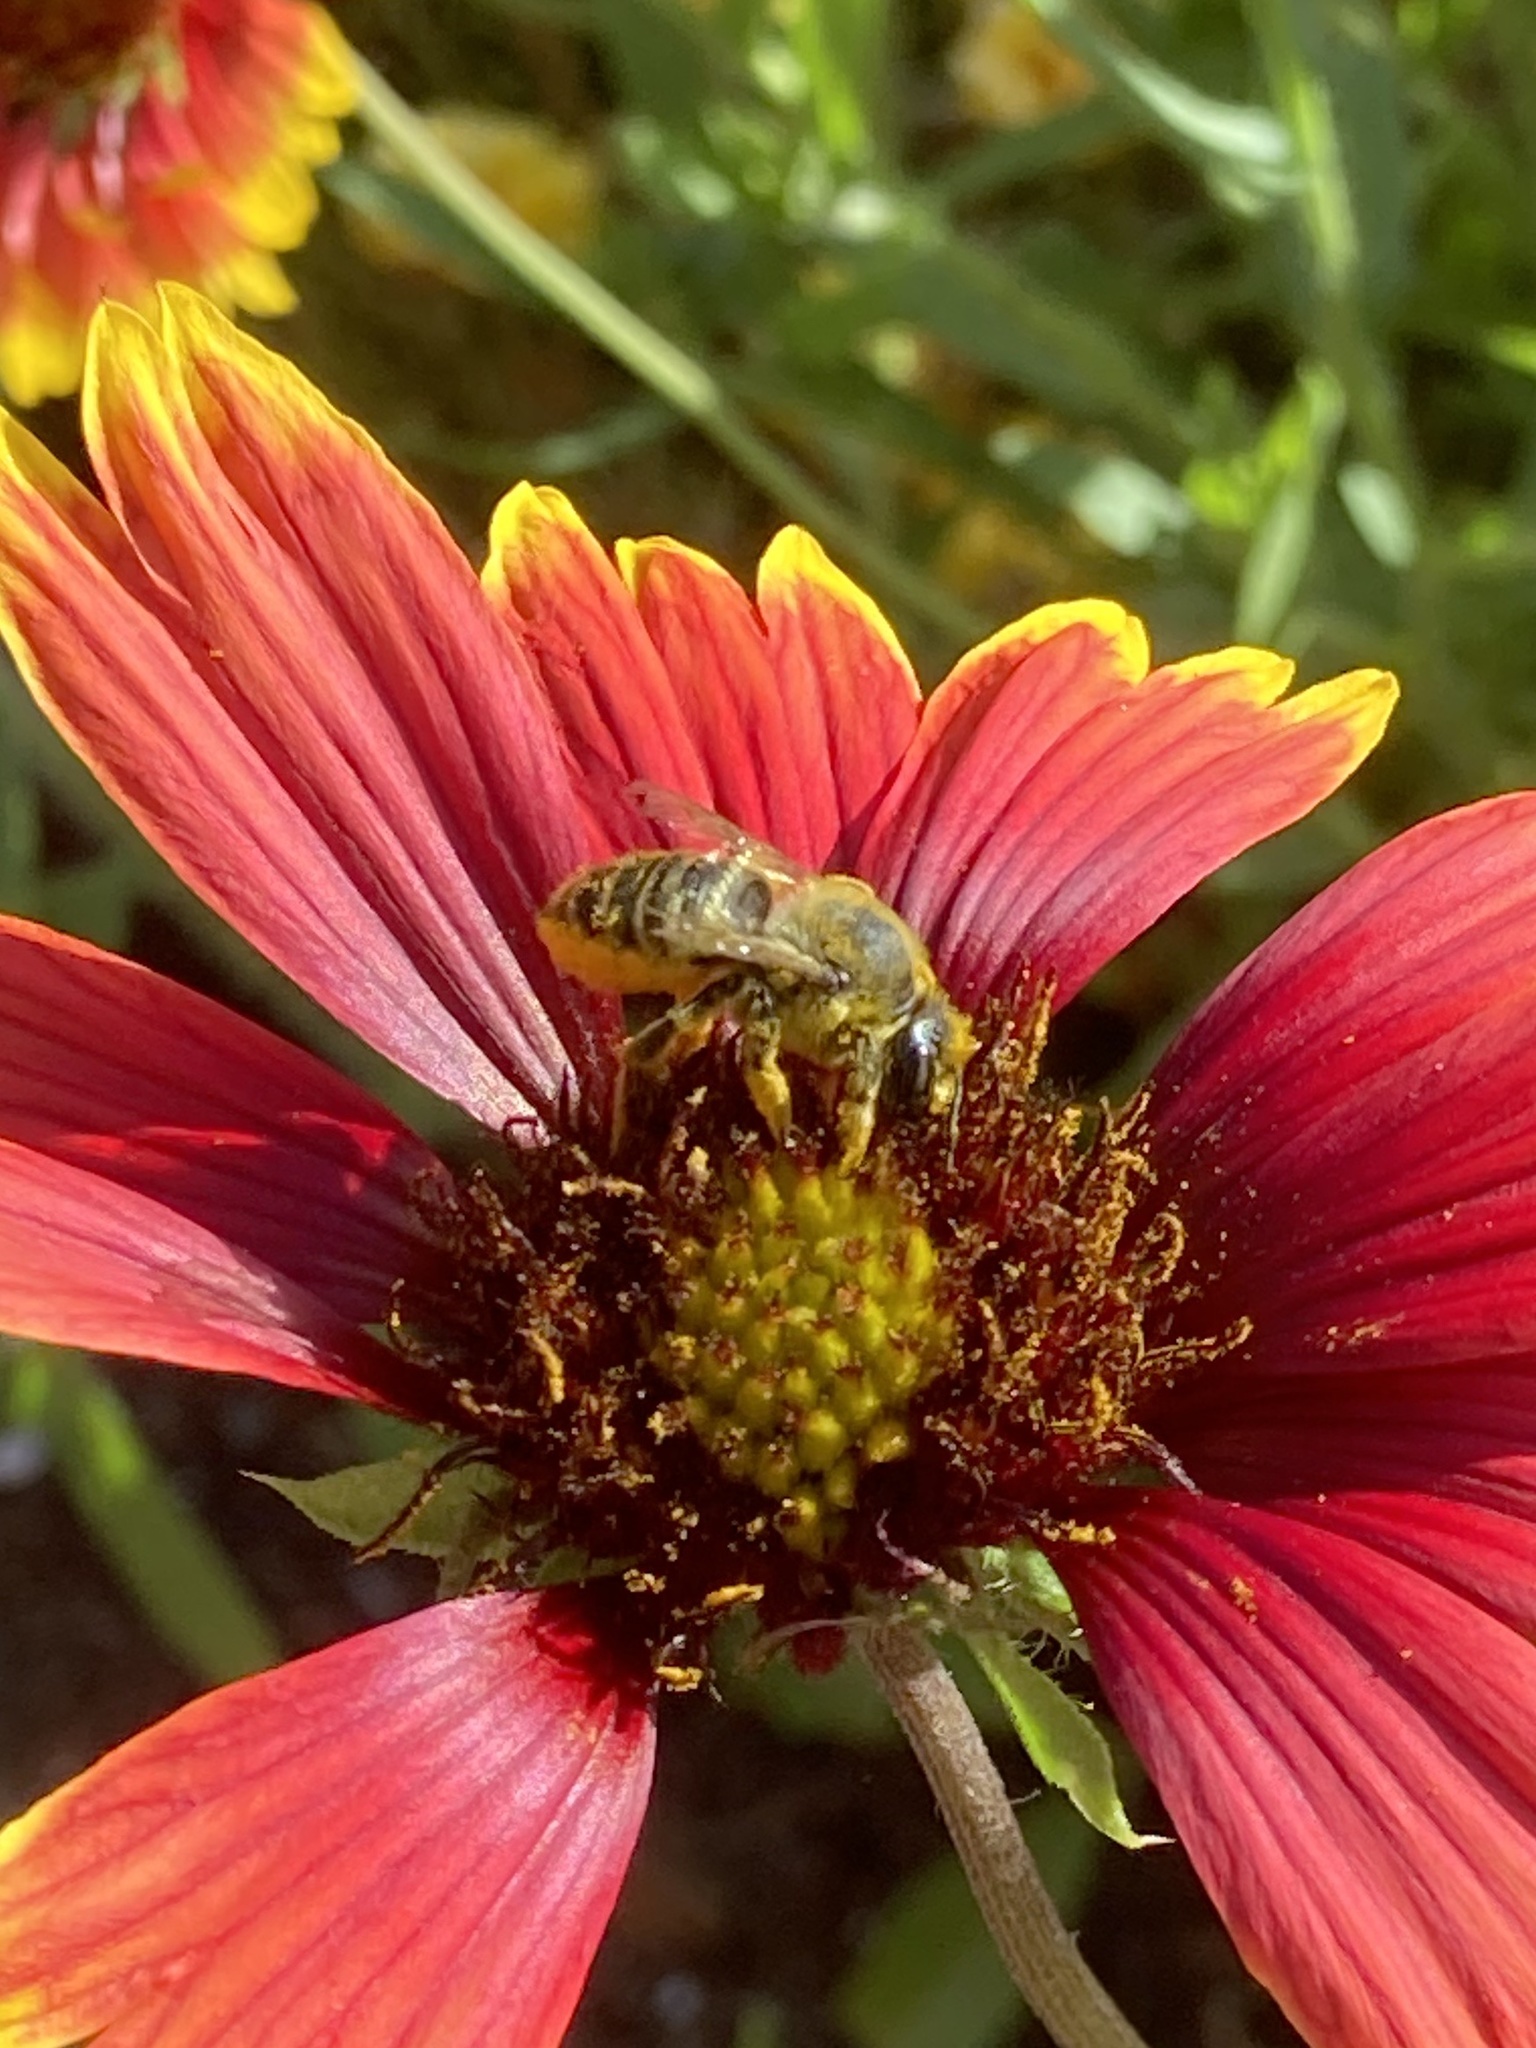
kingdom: Animalia
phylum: Arthropoda
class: Insecta
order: Hymenoptera
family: Megachilidae
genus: Megachile
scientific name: Megachile latimanus
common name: Leafcutting bee
